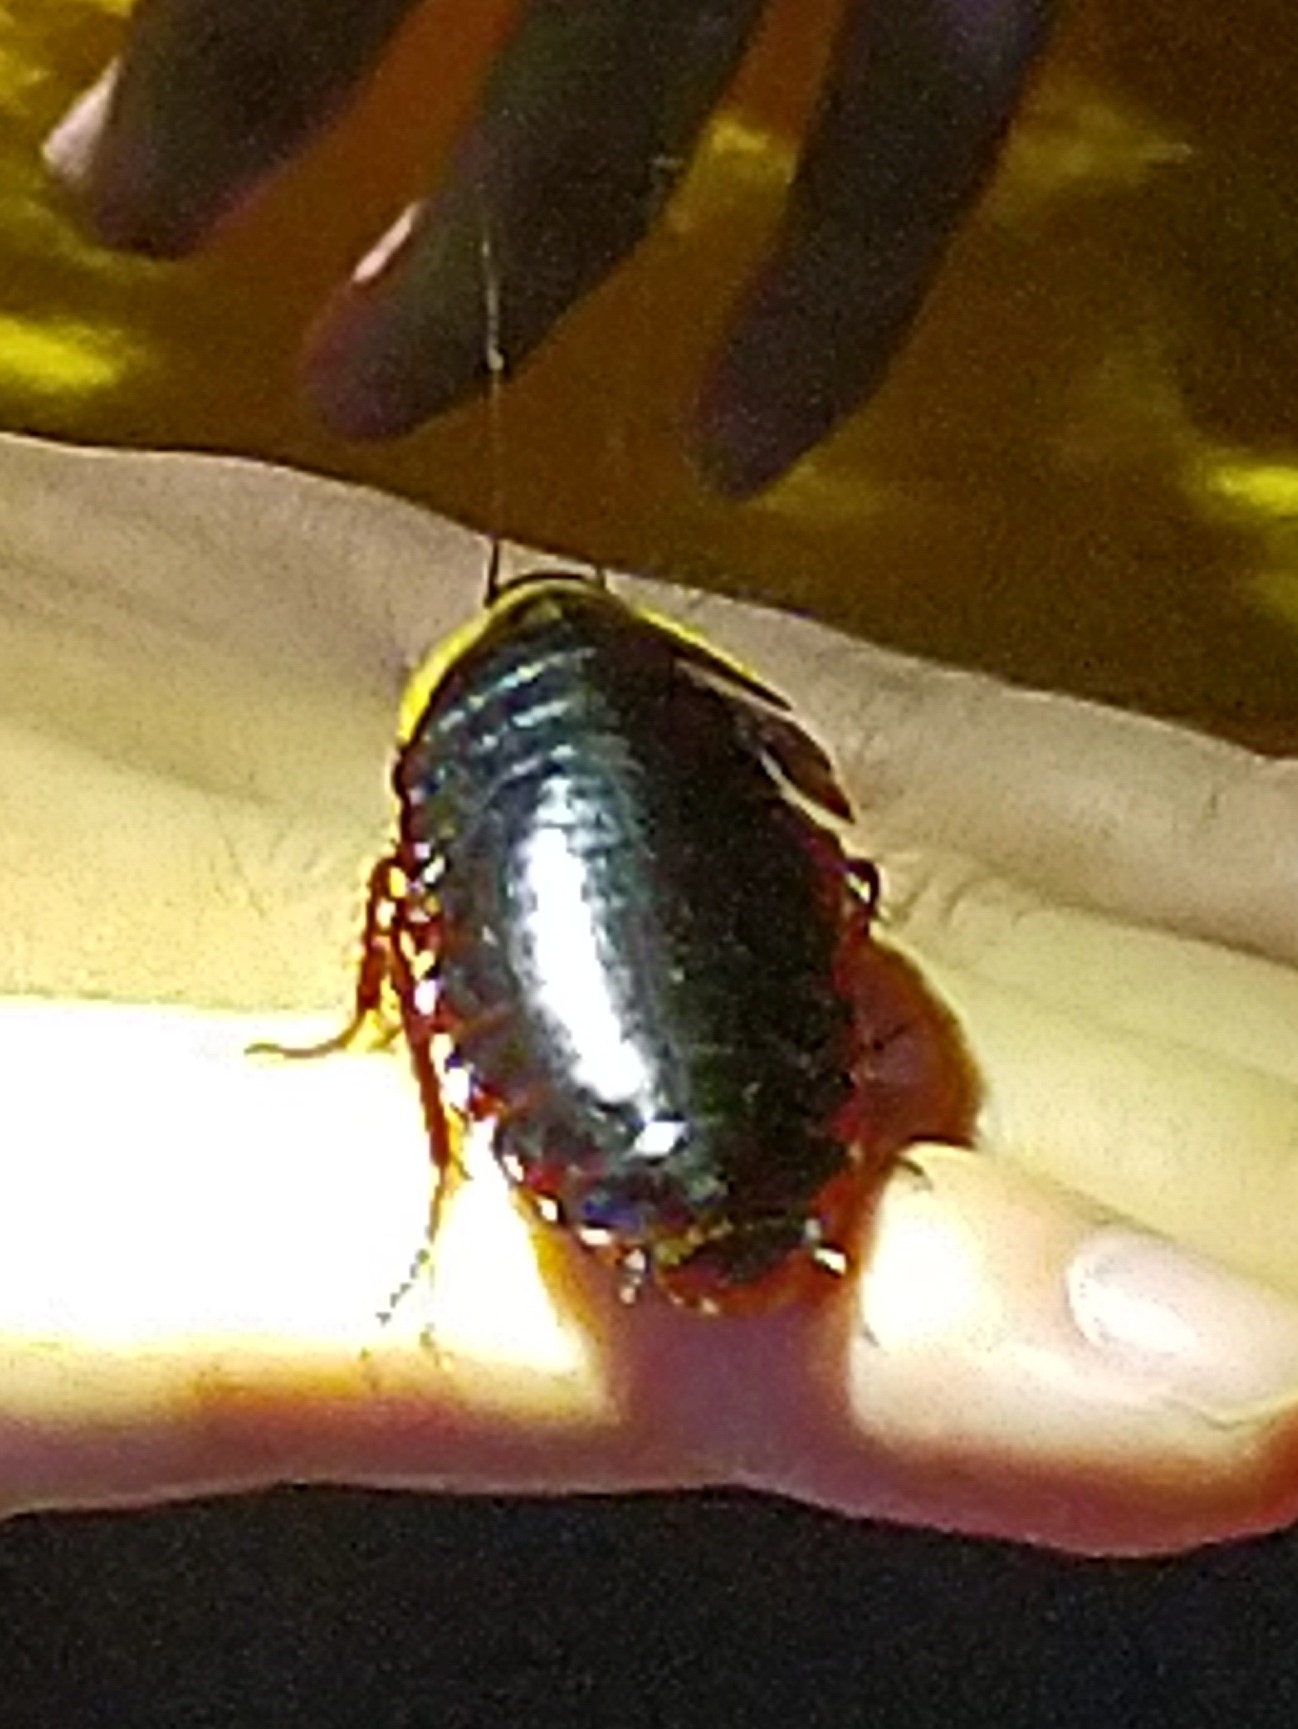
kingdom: Animalia
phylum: Arthropoda
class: Insecta
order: Blattodea
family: Blaberidae
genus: Opisthoplatia
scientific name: Opisthoplatia orientalis
